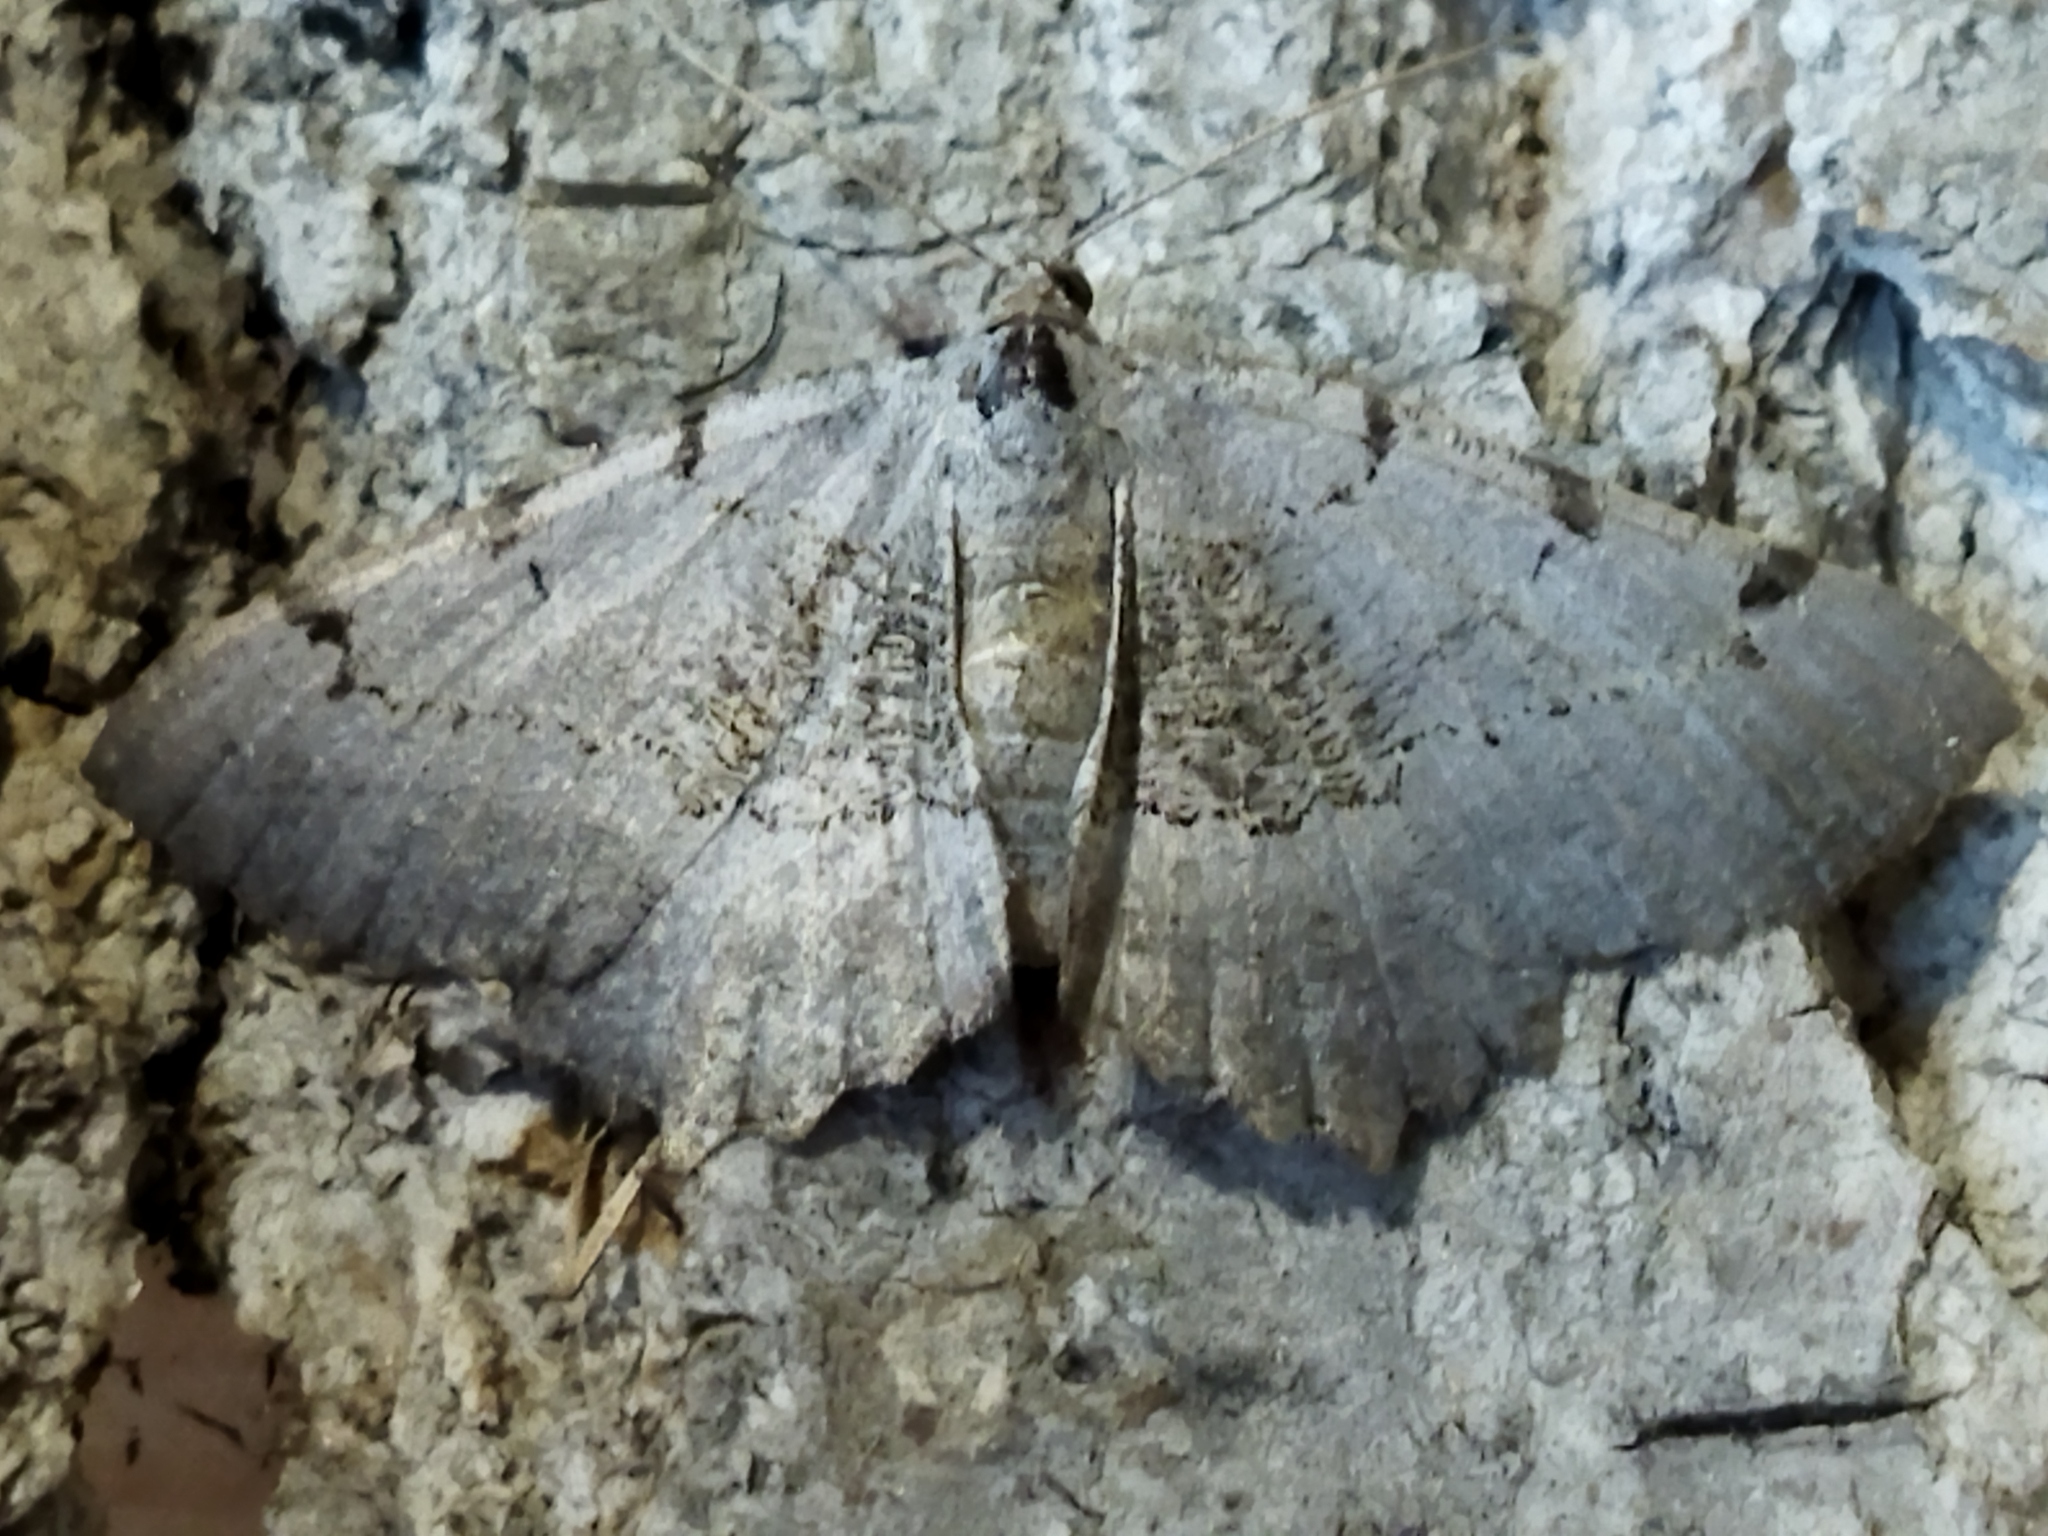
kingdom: Animalia
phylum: Arthropoda
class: Insecta
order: Lepidoptera
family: Geometridae
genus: Neognopharmia
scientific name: Neognopharmia stevenaria
